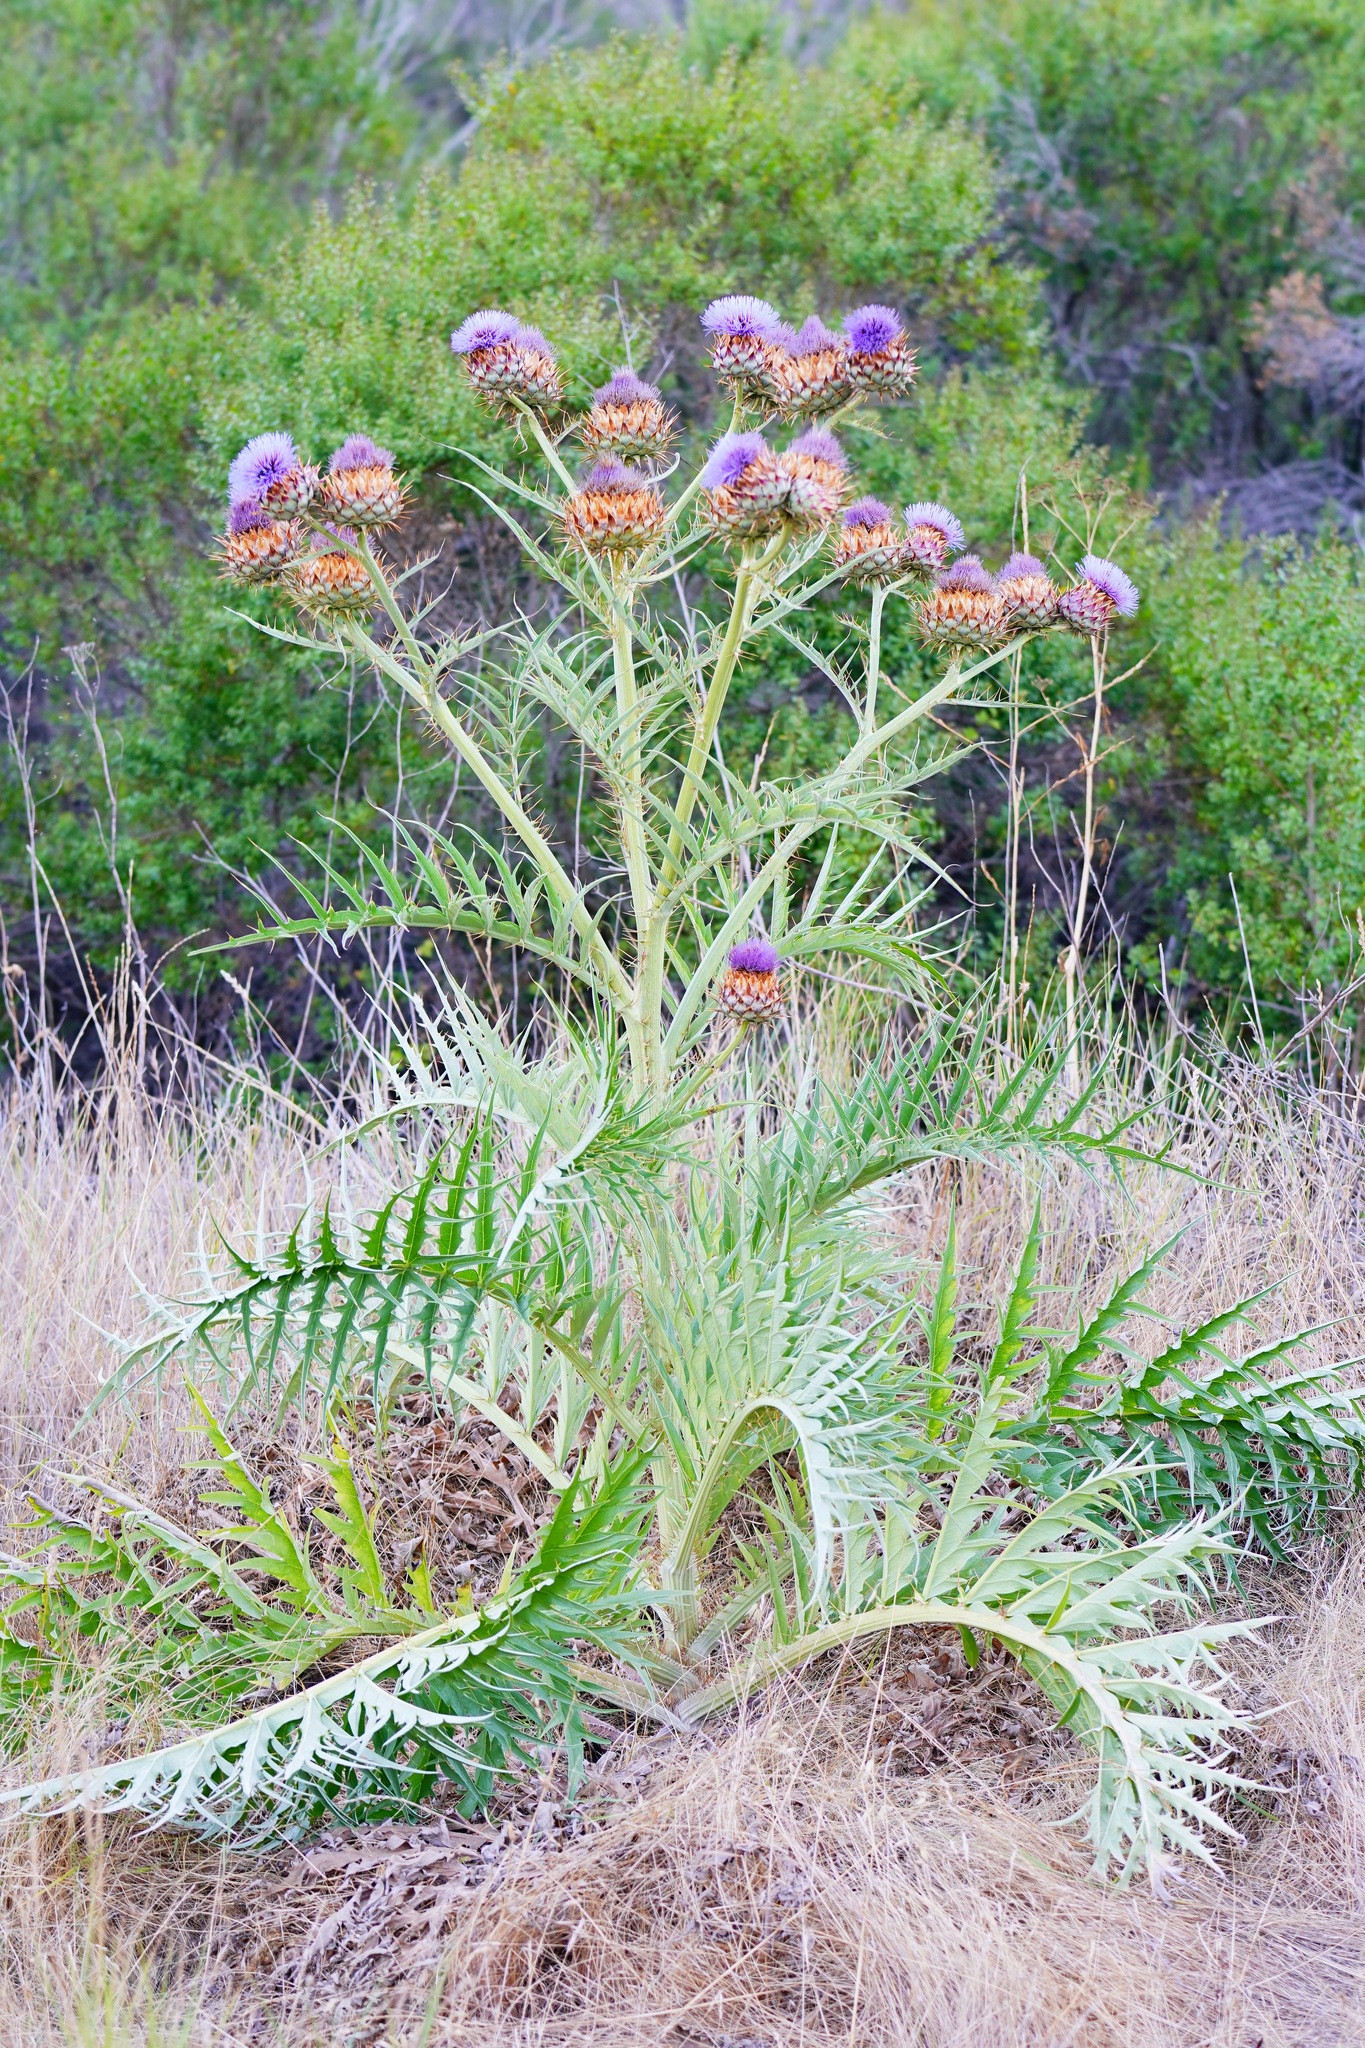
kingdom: Plantae
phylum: Tracheophyta
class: Magnoliopsida
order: Asterales
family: Asteraceae
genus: Cynara
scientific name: Cynara cardunculus
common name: Globe artichoke
